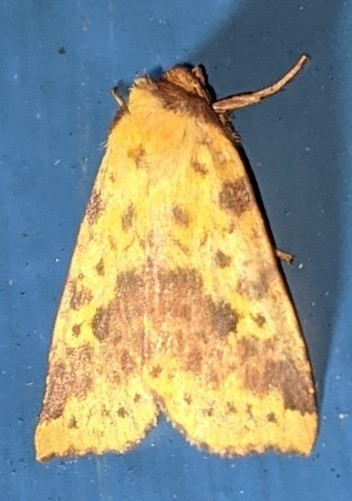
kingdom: Animalia
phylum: Arthropoda
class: Insecta
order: Lepidoptera
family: Noctuidae
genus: Xanthia
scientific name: Xanthia tatago
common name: Pink-banded sallow
